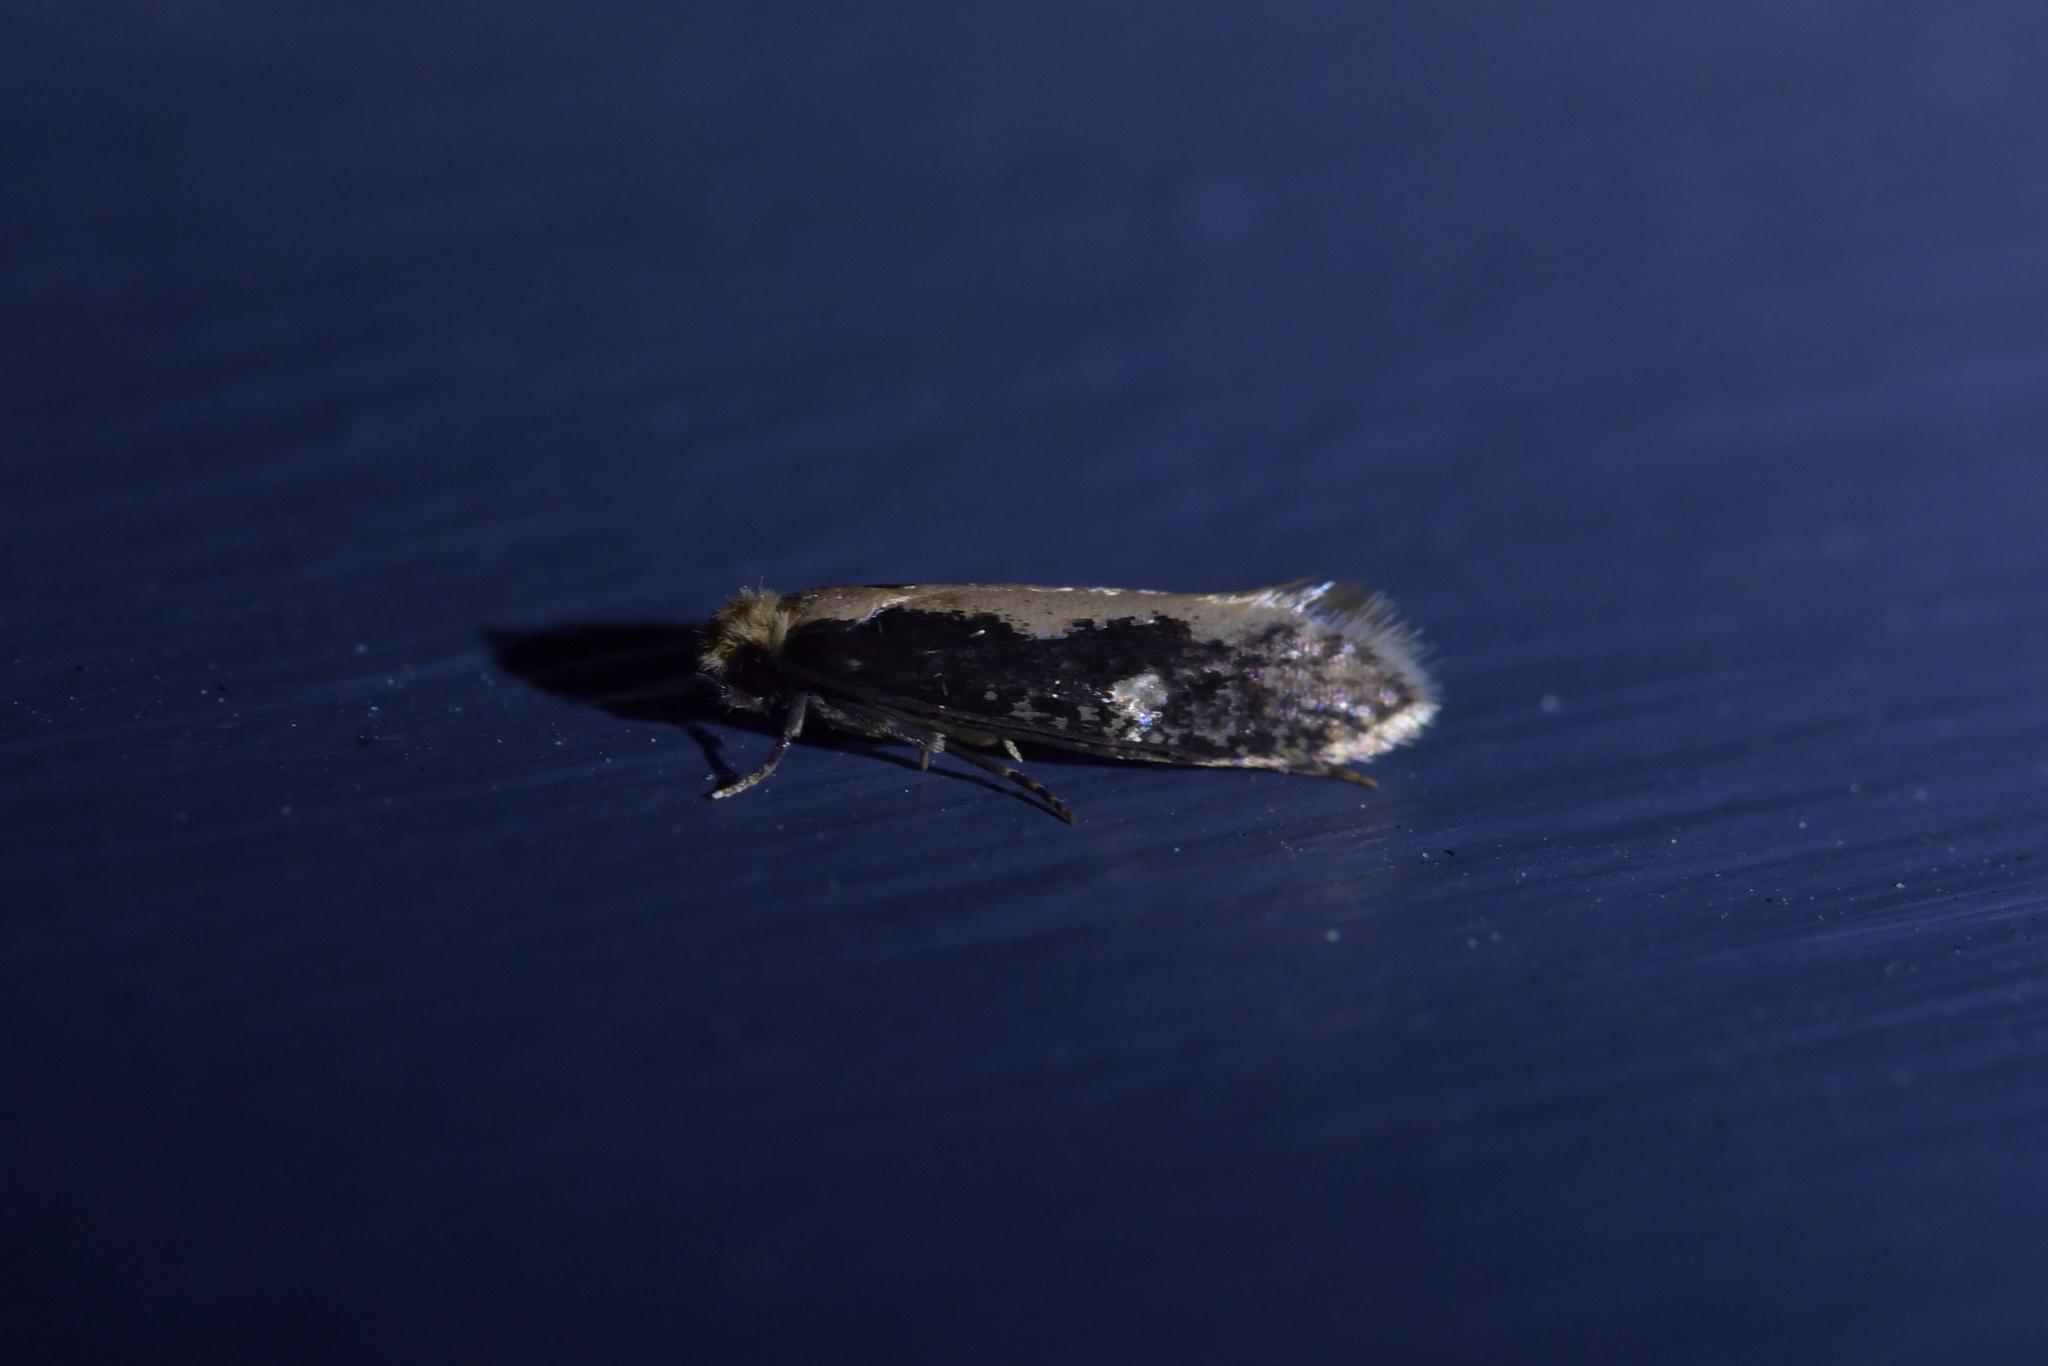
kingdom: Animalia
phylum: Arthropoda
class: Insecta
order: Lepidoptera
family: Tineidae
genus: Monopis
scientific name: Monopis crocicapitella
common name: Moth
